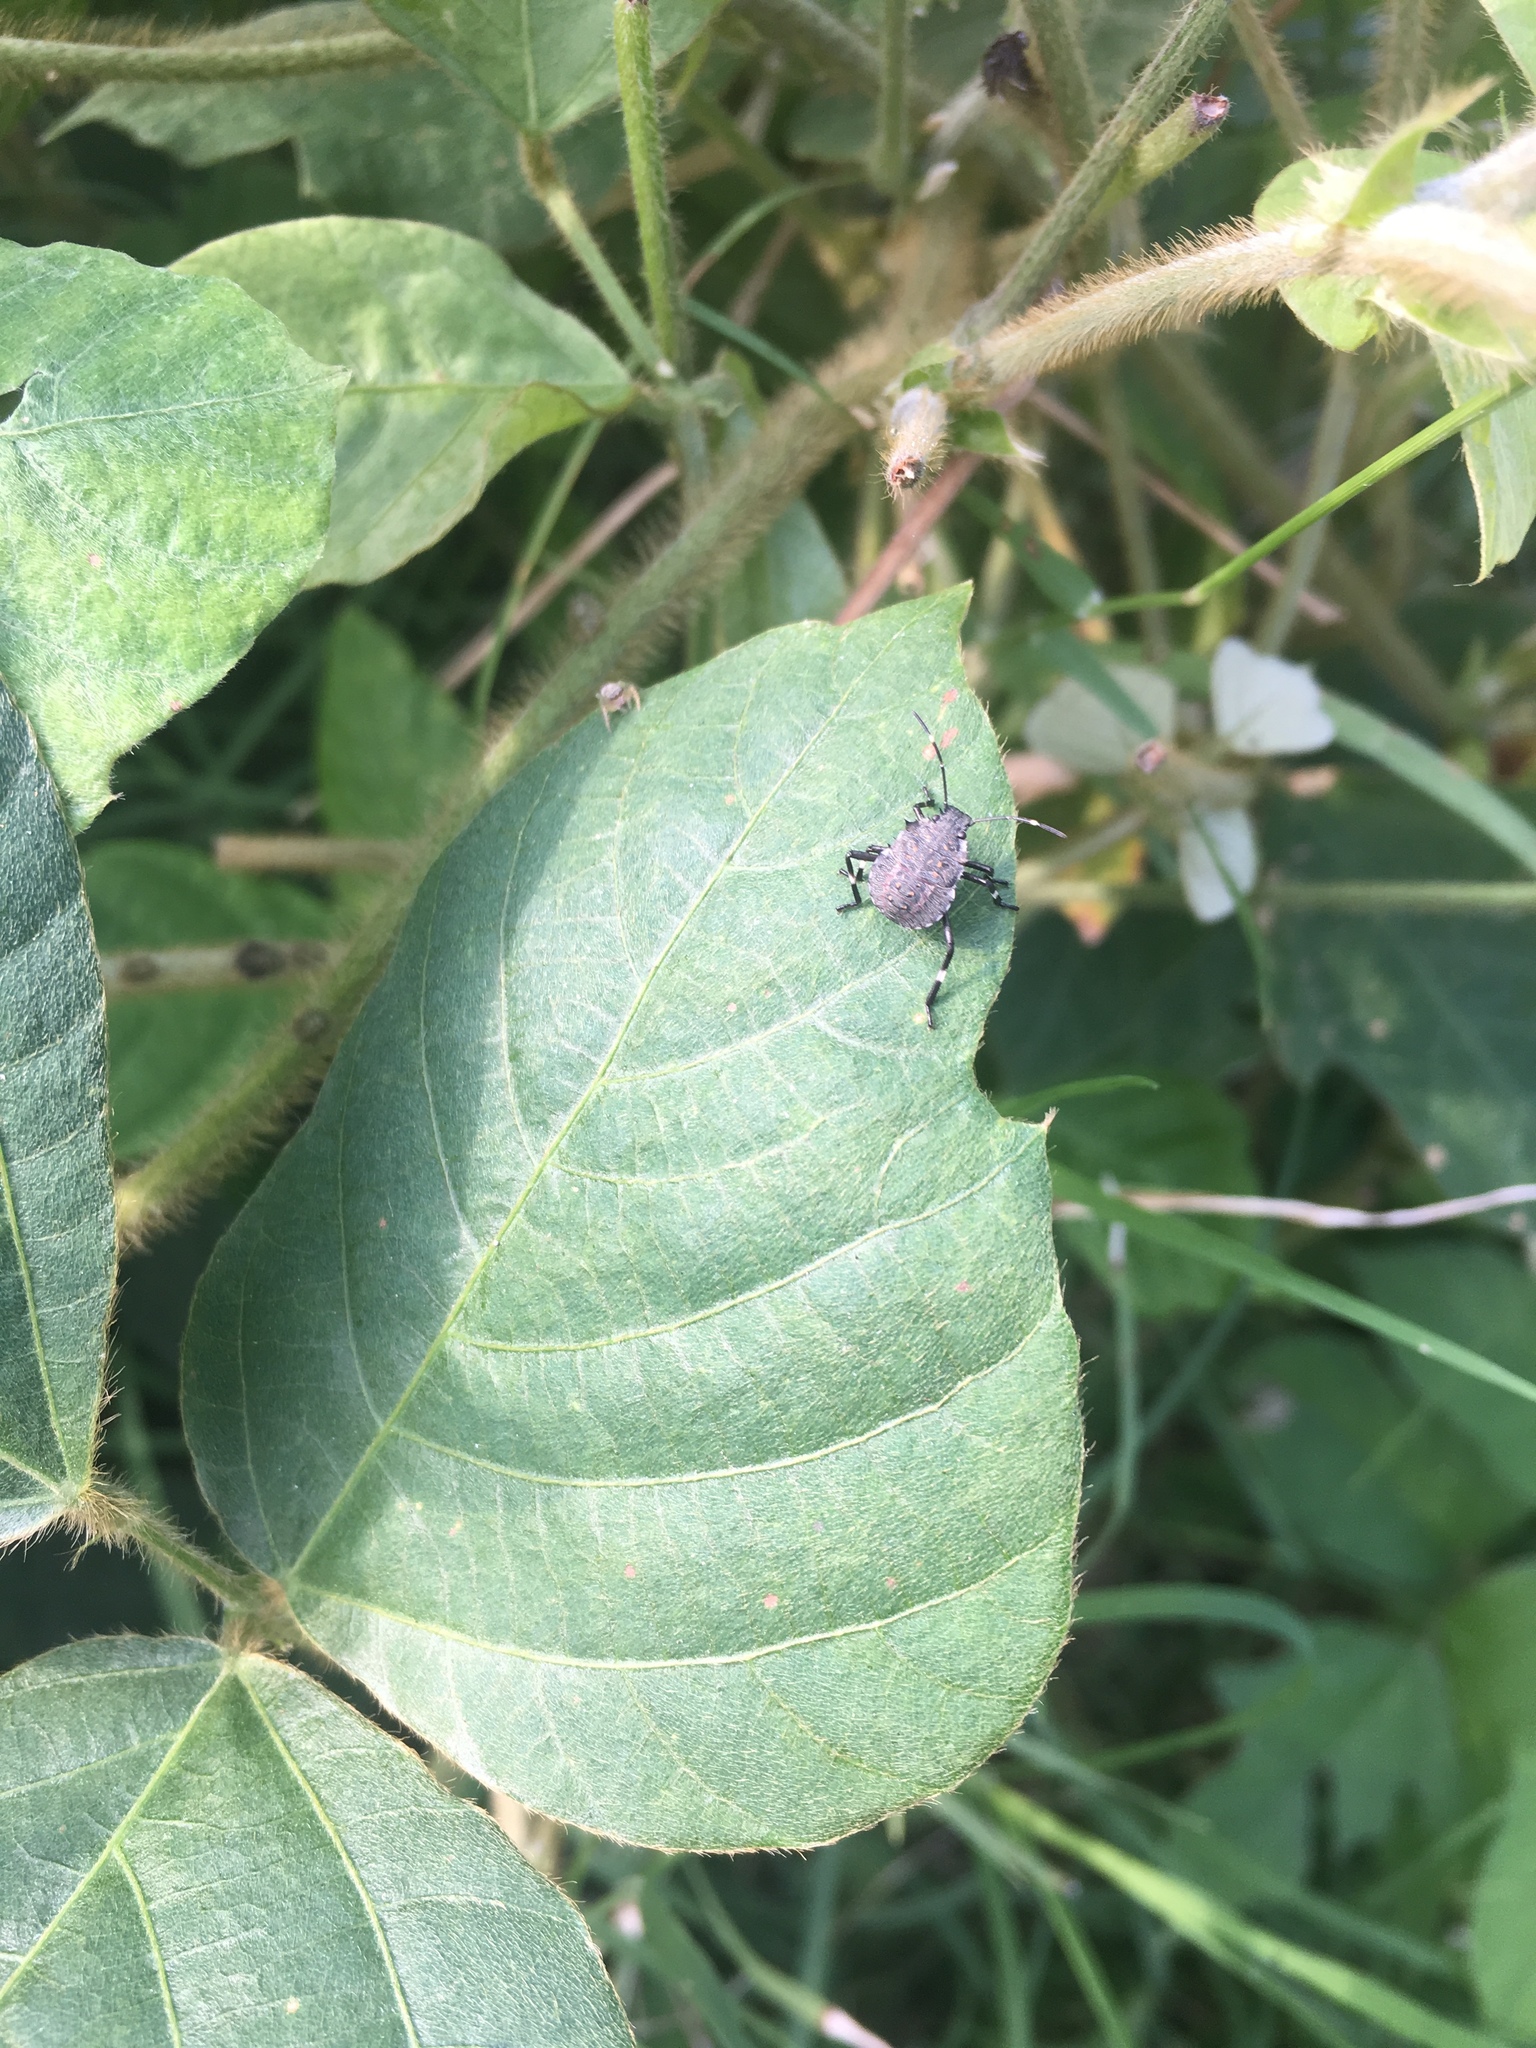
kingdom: Animalia
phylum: Arthropoda
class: Insecta
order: Hemiptera
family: Pentatomidae
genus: Halyomorpha
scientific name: Halyomorpha halys
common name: Brown marmorated stink bug
